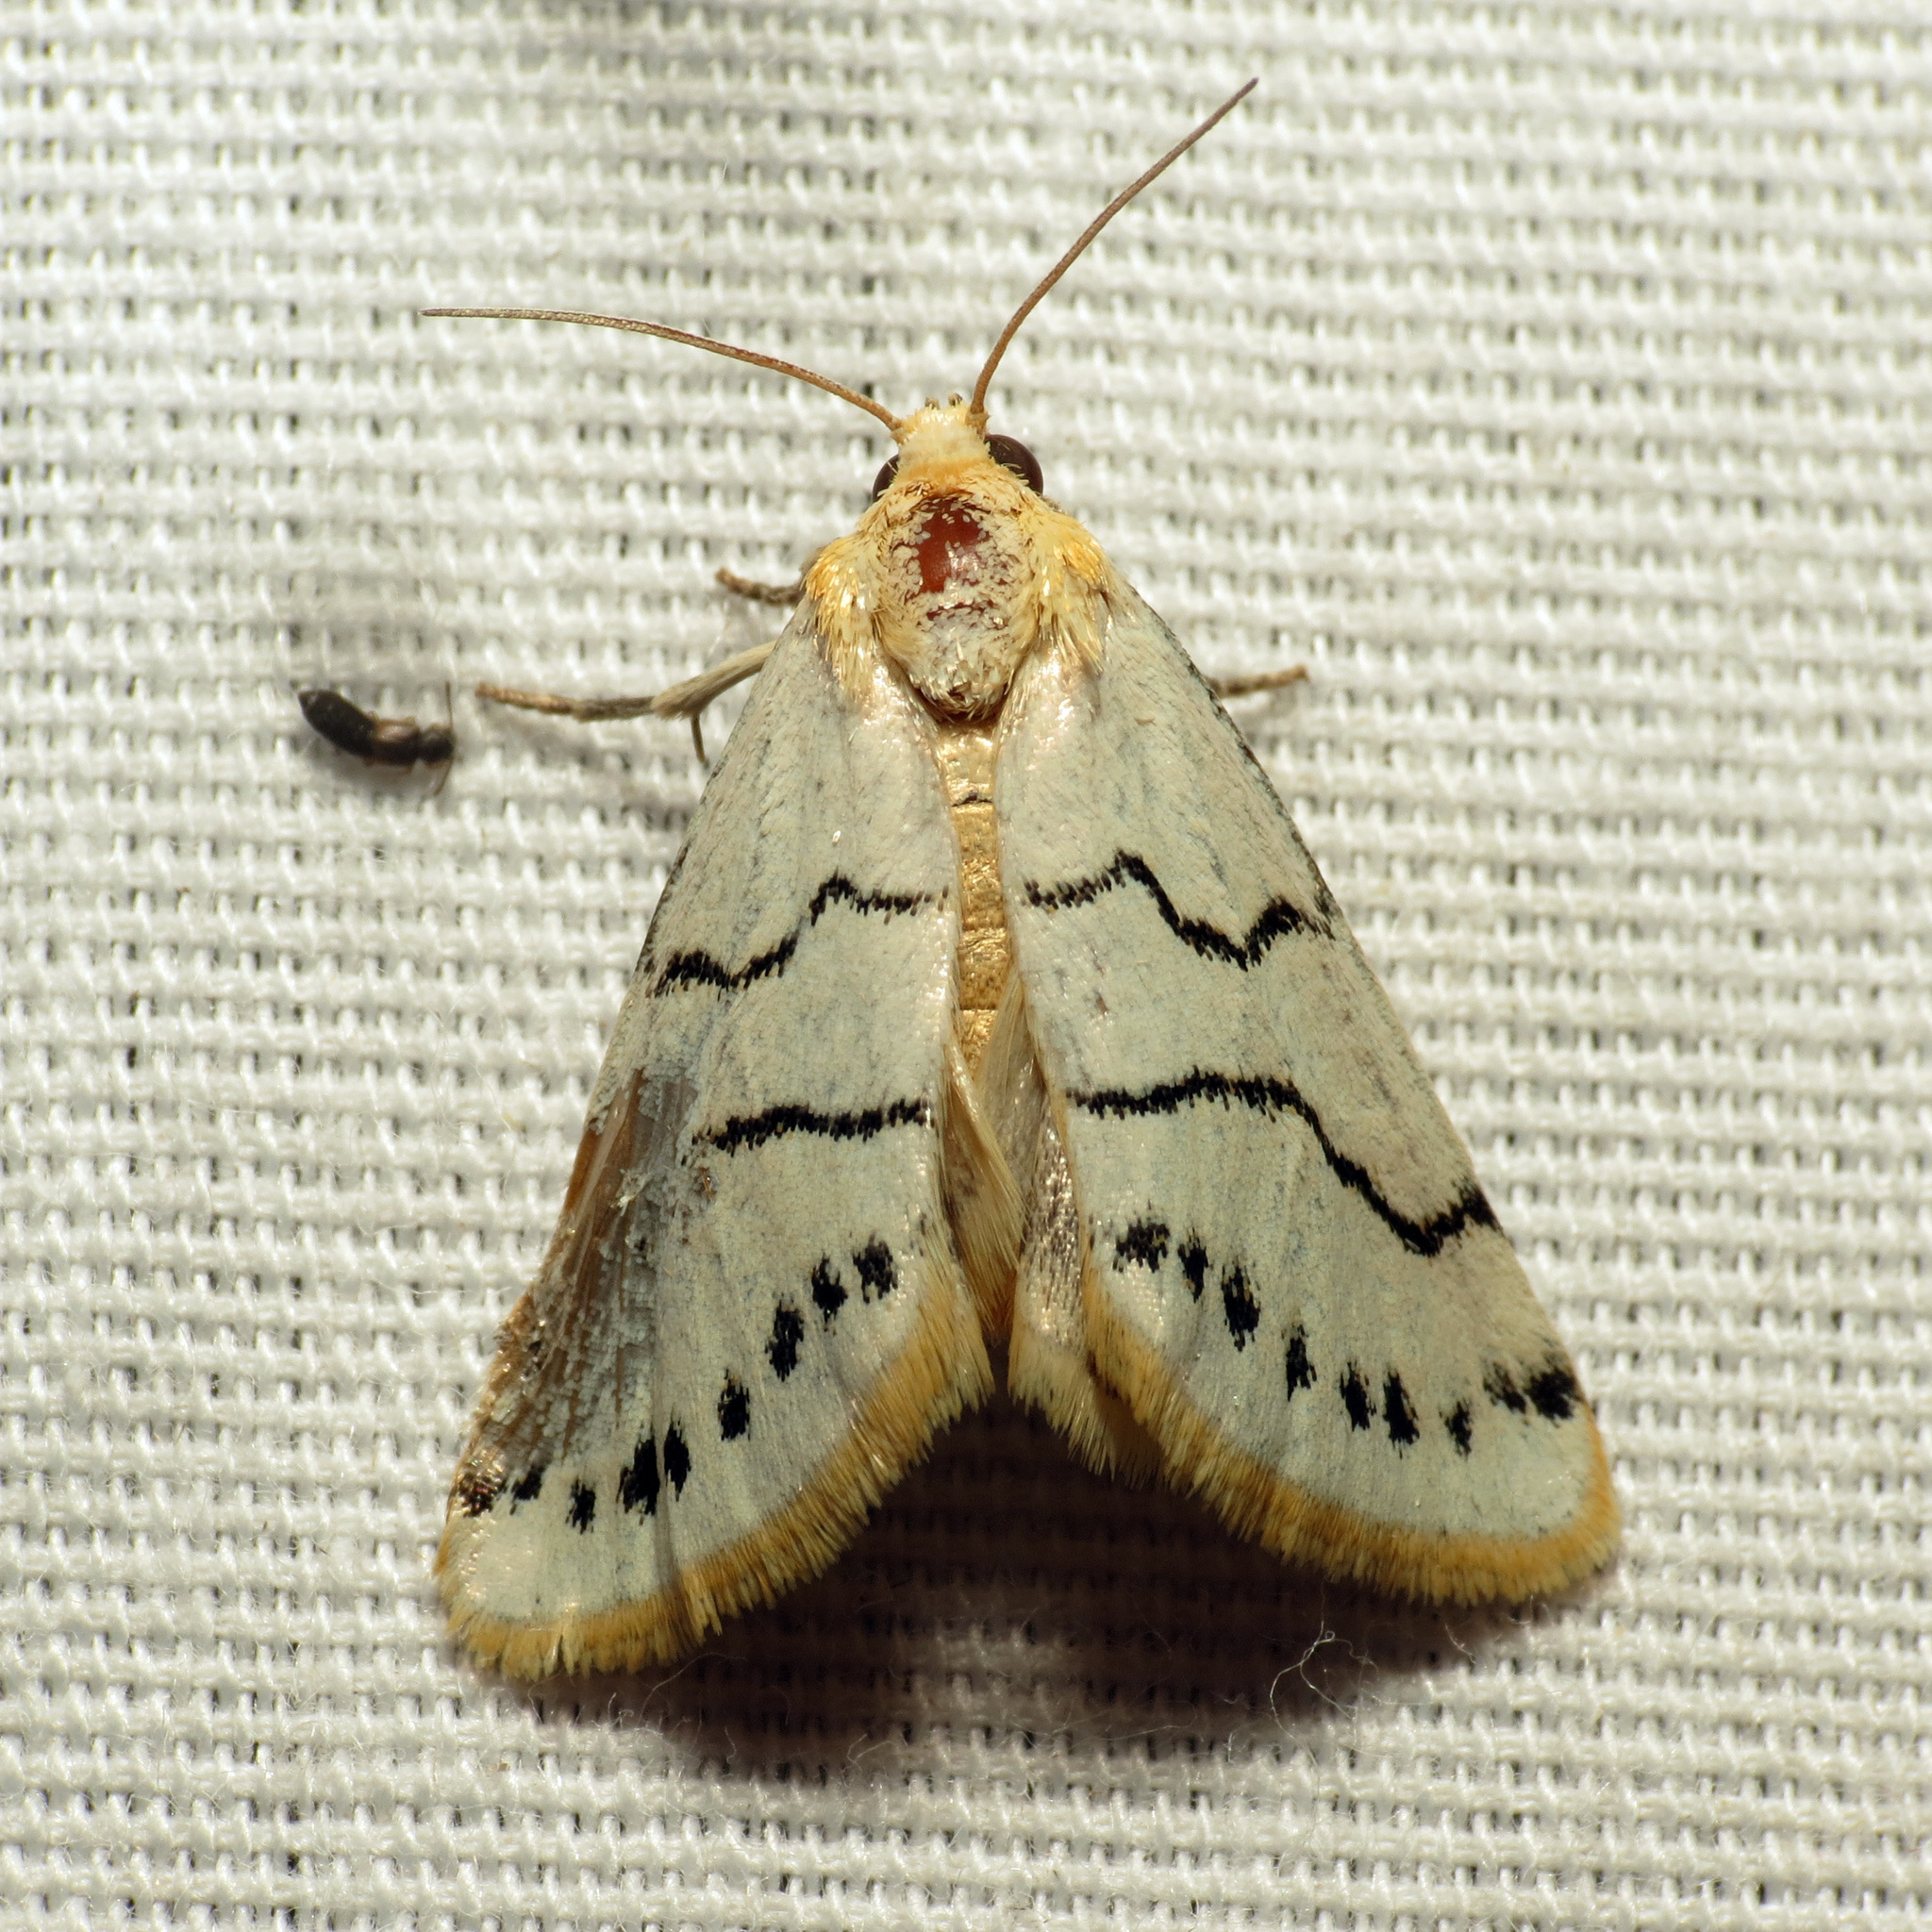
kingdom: Animalia
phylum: Arthropoda
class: Insecta
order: Lepidoptera
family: Noctuidae
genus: Lineostriastiria
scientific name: Lineostriastiria sexseriata
